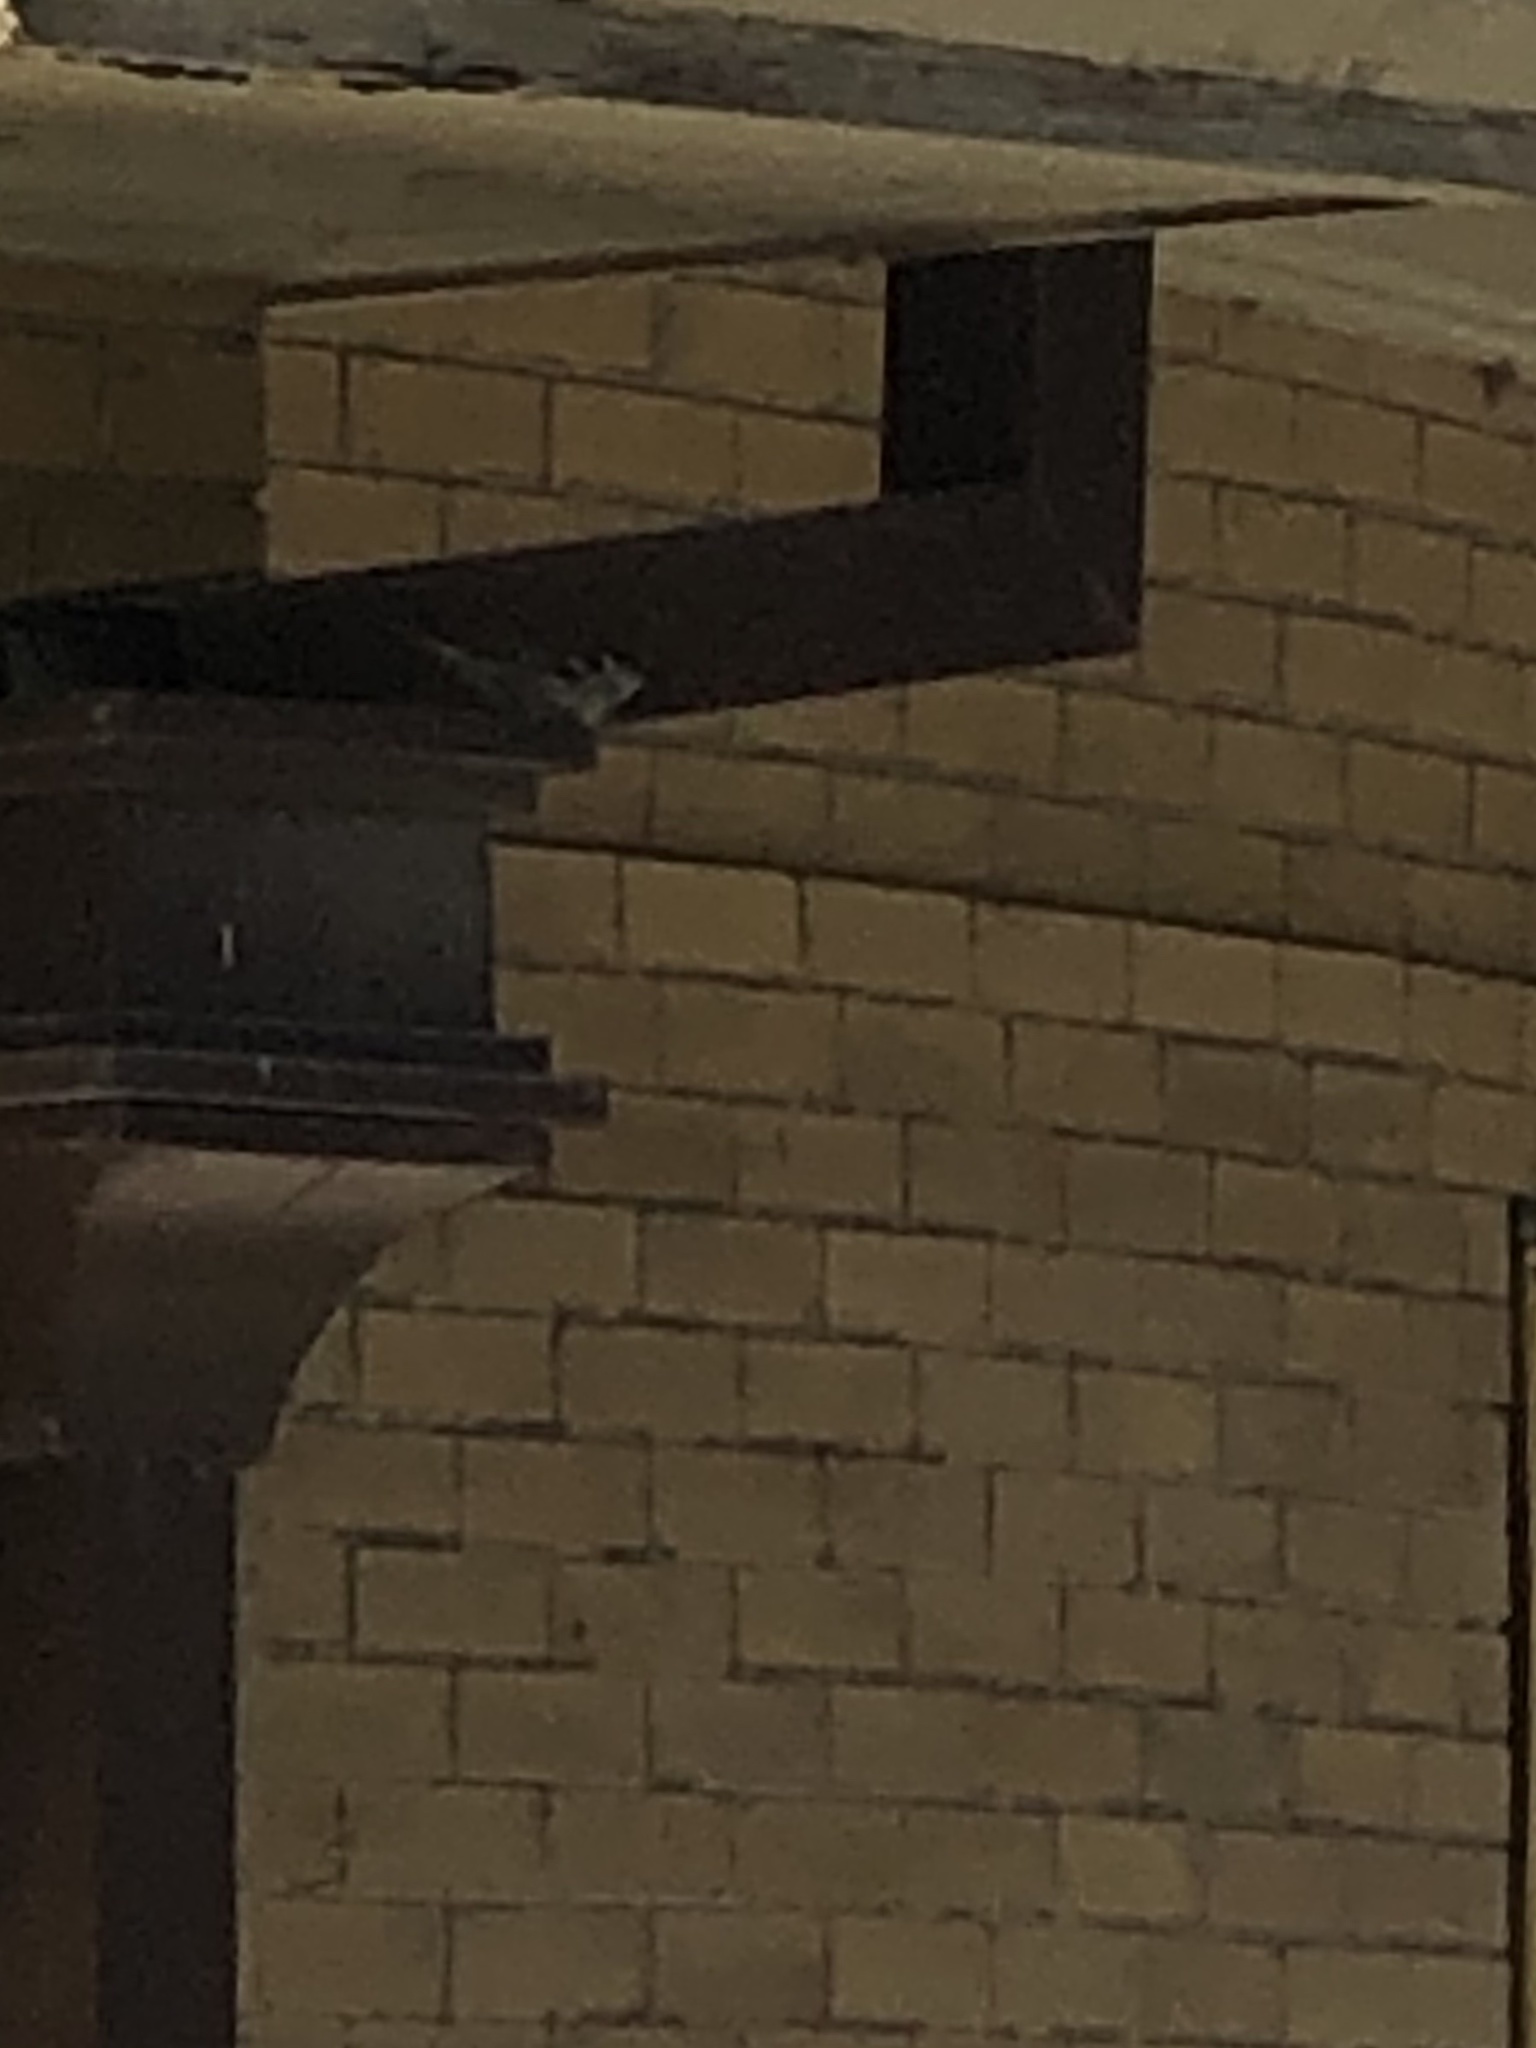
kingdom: Animalia
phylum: Chordata
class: Aves
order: Passeriformes
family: Passeridae
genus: Passer
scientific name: Passer domesticus
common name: House sparrow
